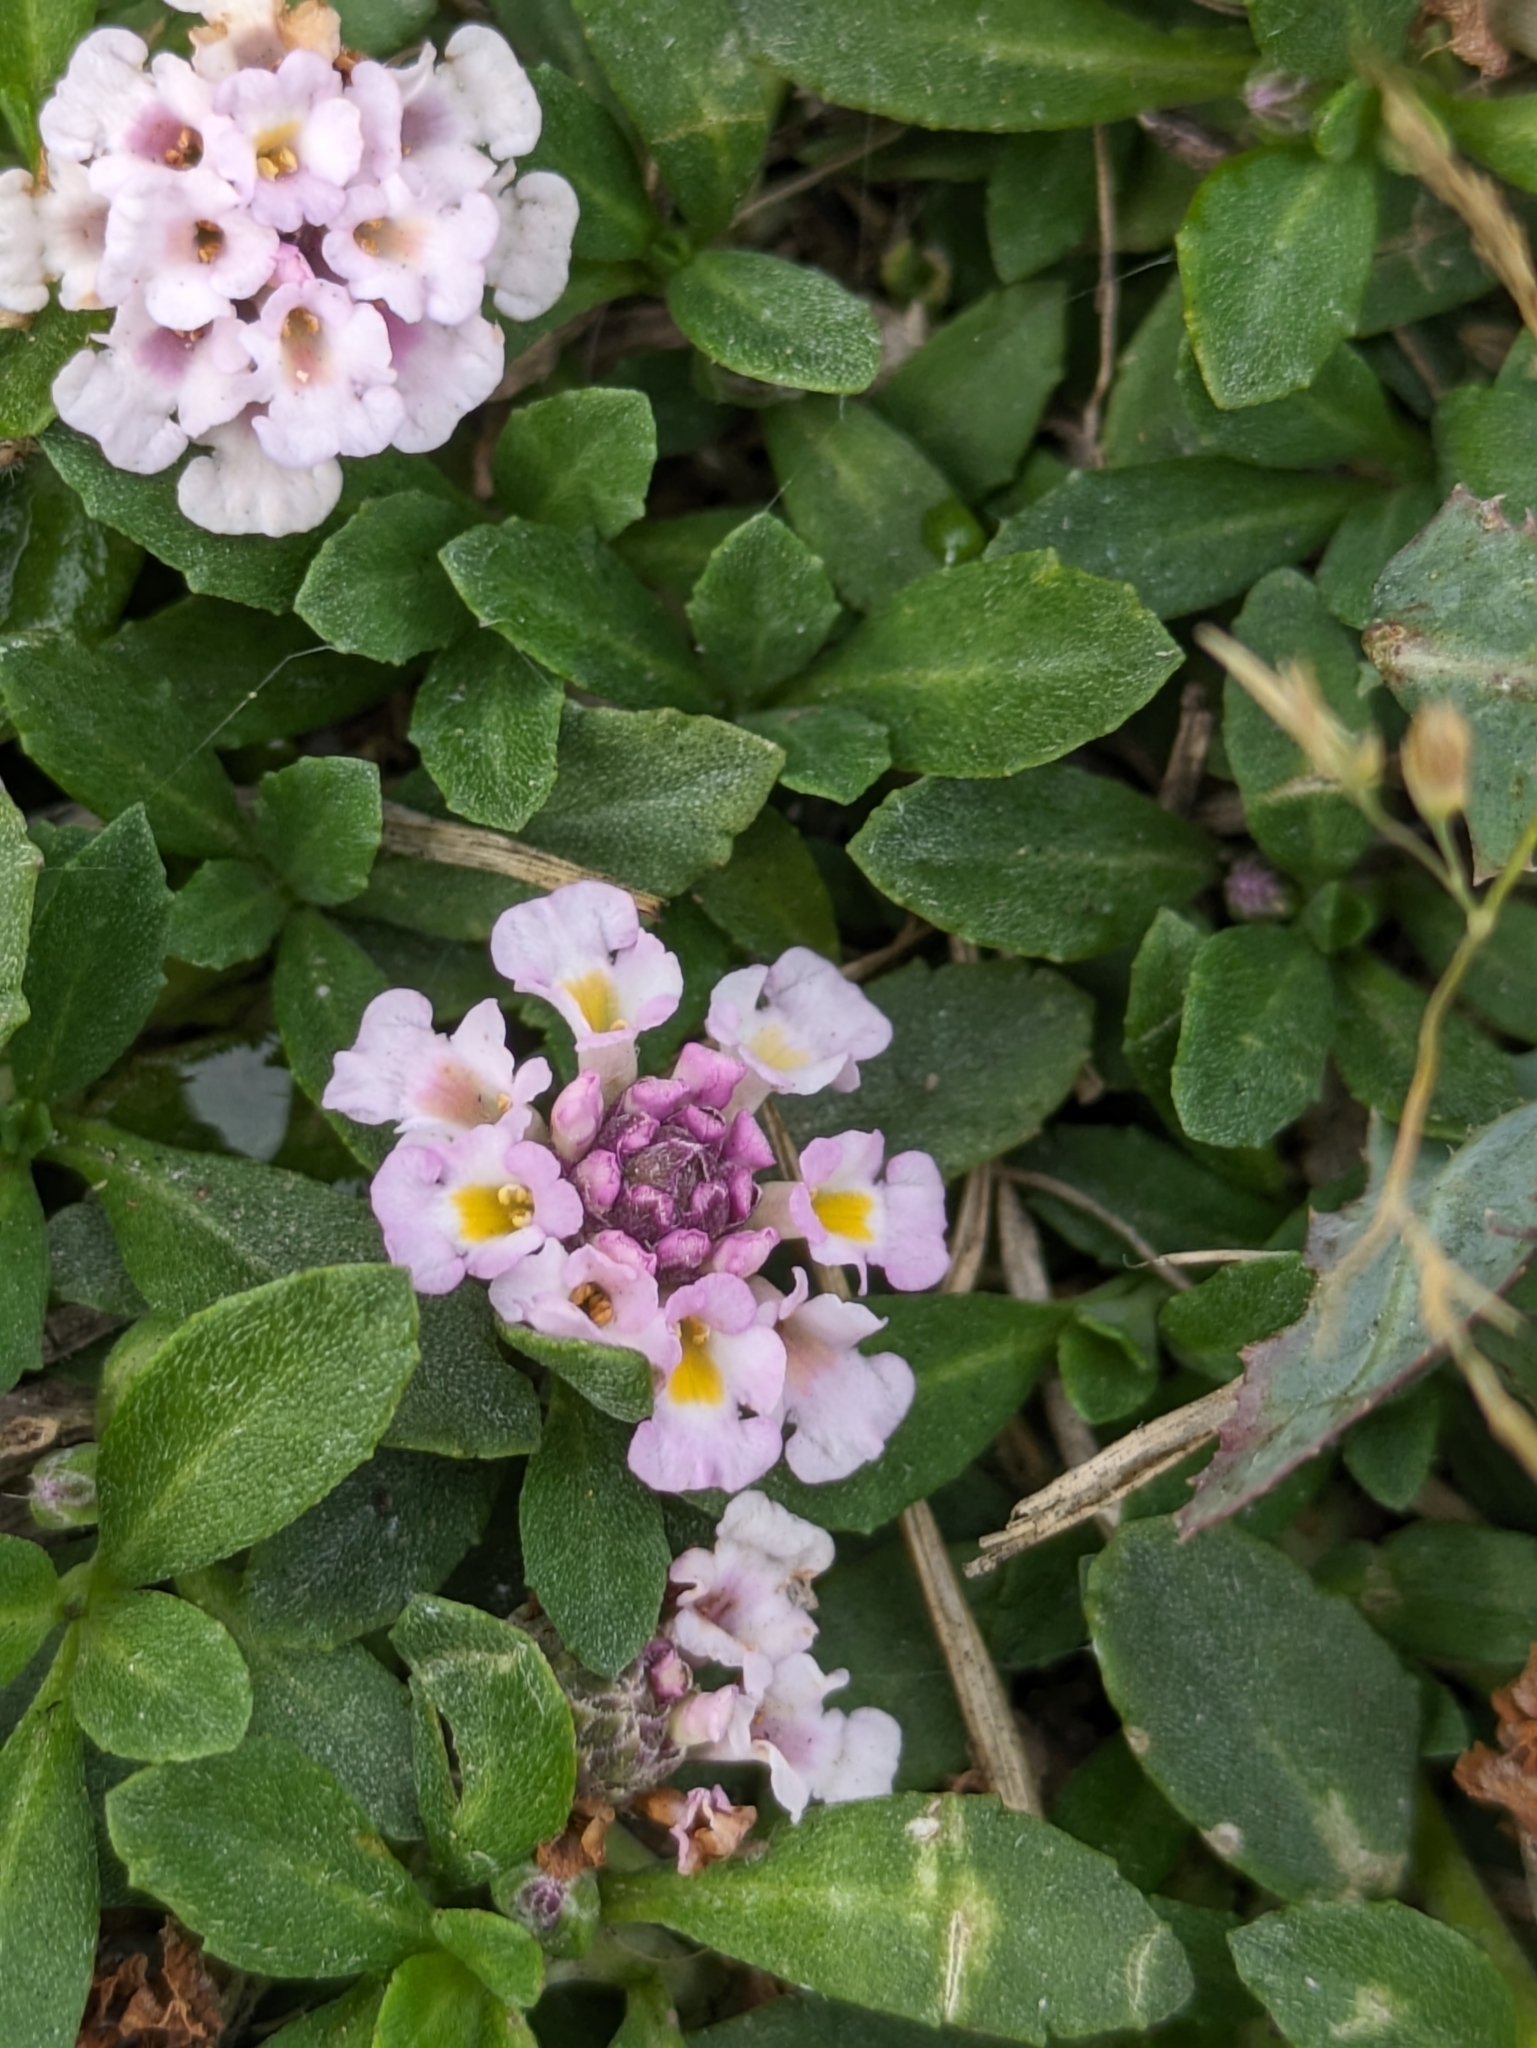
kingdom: Plantae
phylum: Tracheophyta
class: Magnoliopsida
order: Lamiales
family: Verbenaceae
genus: Phyla
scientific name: Phyla nodiflora
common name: Frogfruit
